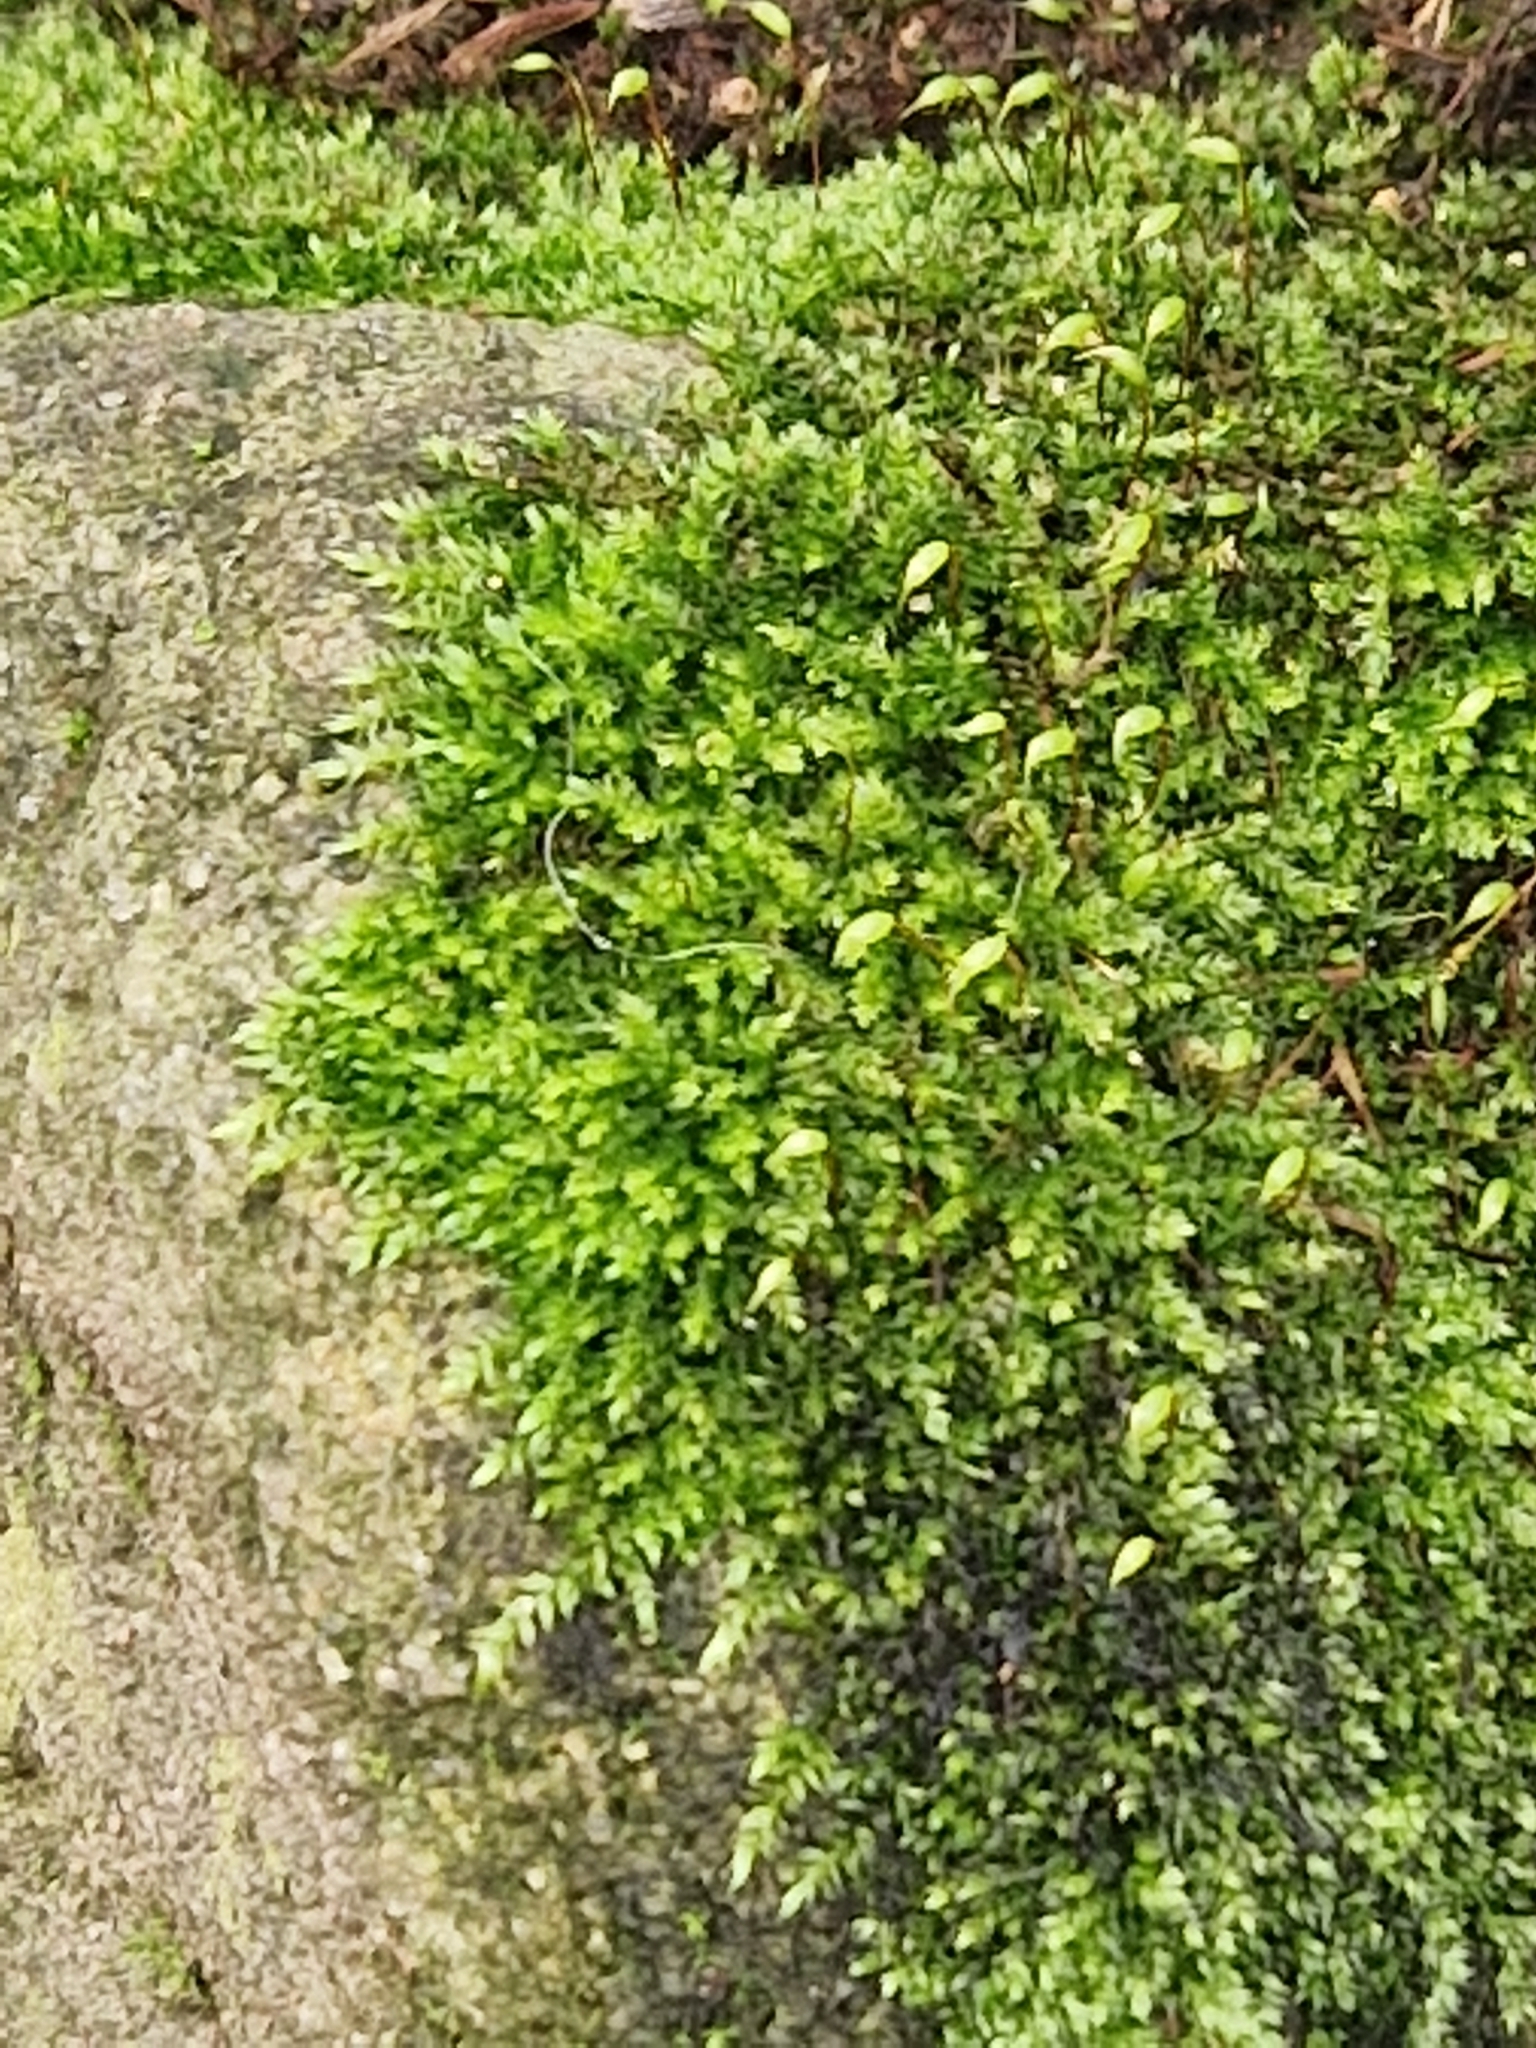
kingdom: Plantae
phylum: Bryophyta
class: Bryopsida
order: Hypnales
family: Brachytheciaceae
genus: Rhynchostegium
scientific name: Rhynchostegium confertum
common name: Clustered feather-moss
